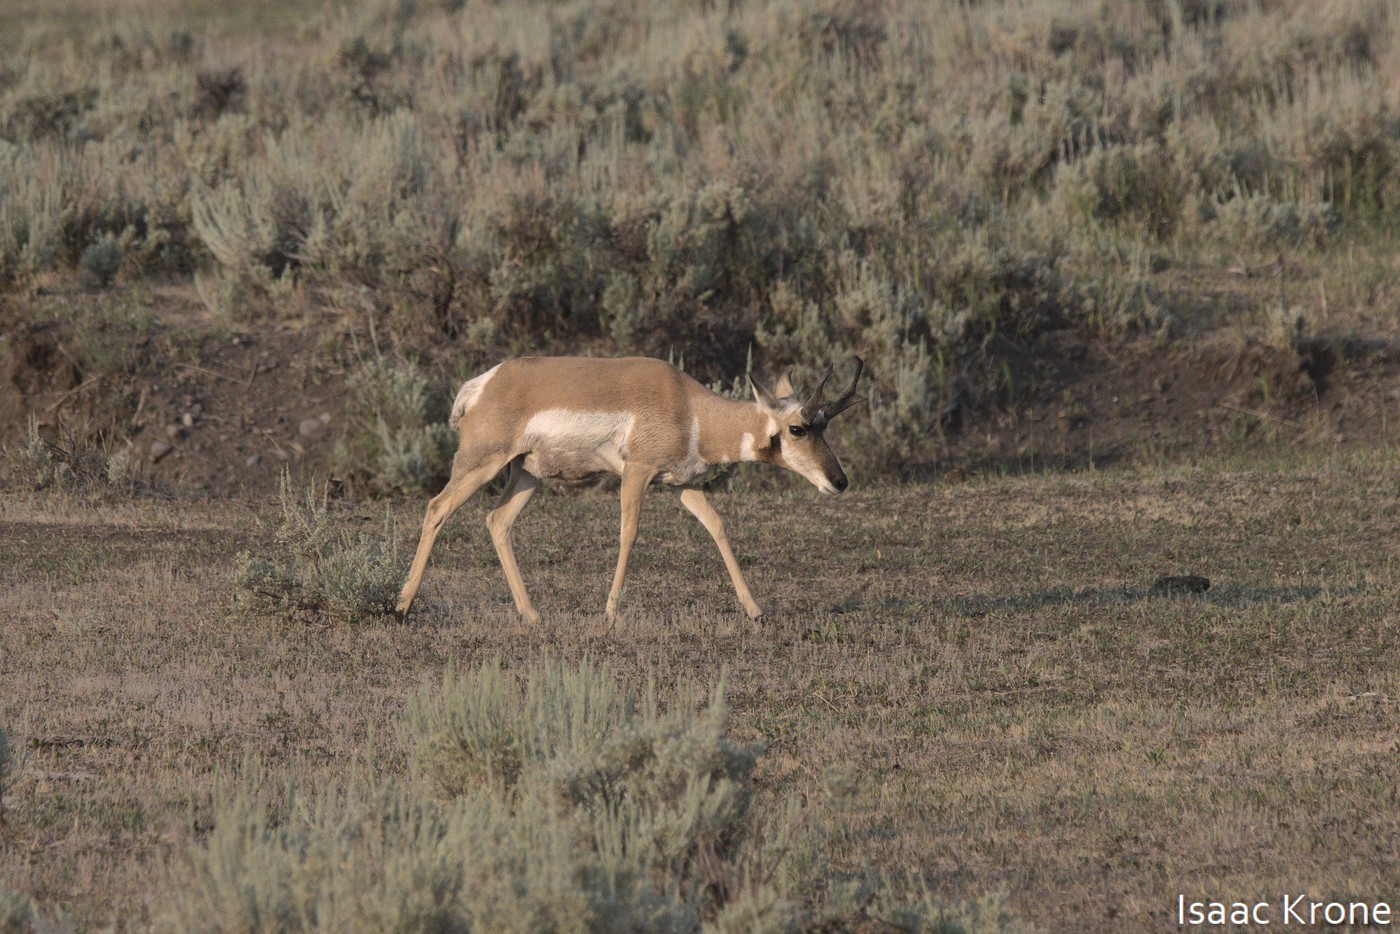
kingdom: Animalia
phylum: Chordata
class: Mammalia
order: Artiodactyla
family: Antilocapridae
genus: Antilocapra
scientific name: Antilocapra americana
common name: Pronghorn
